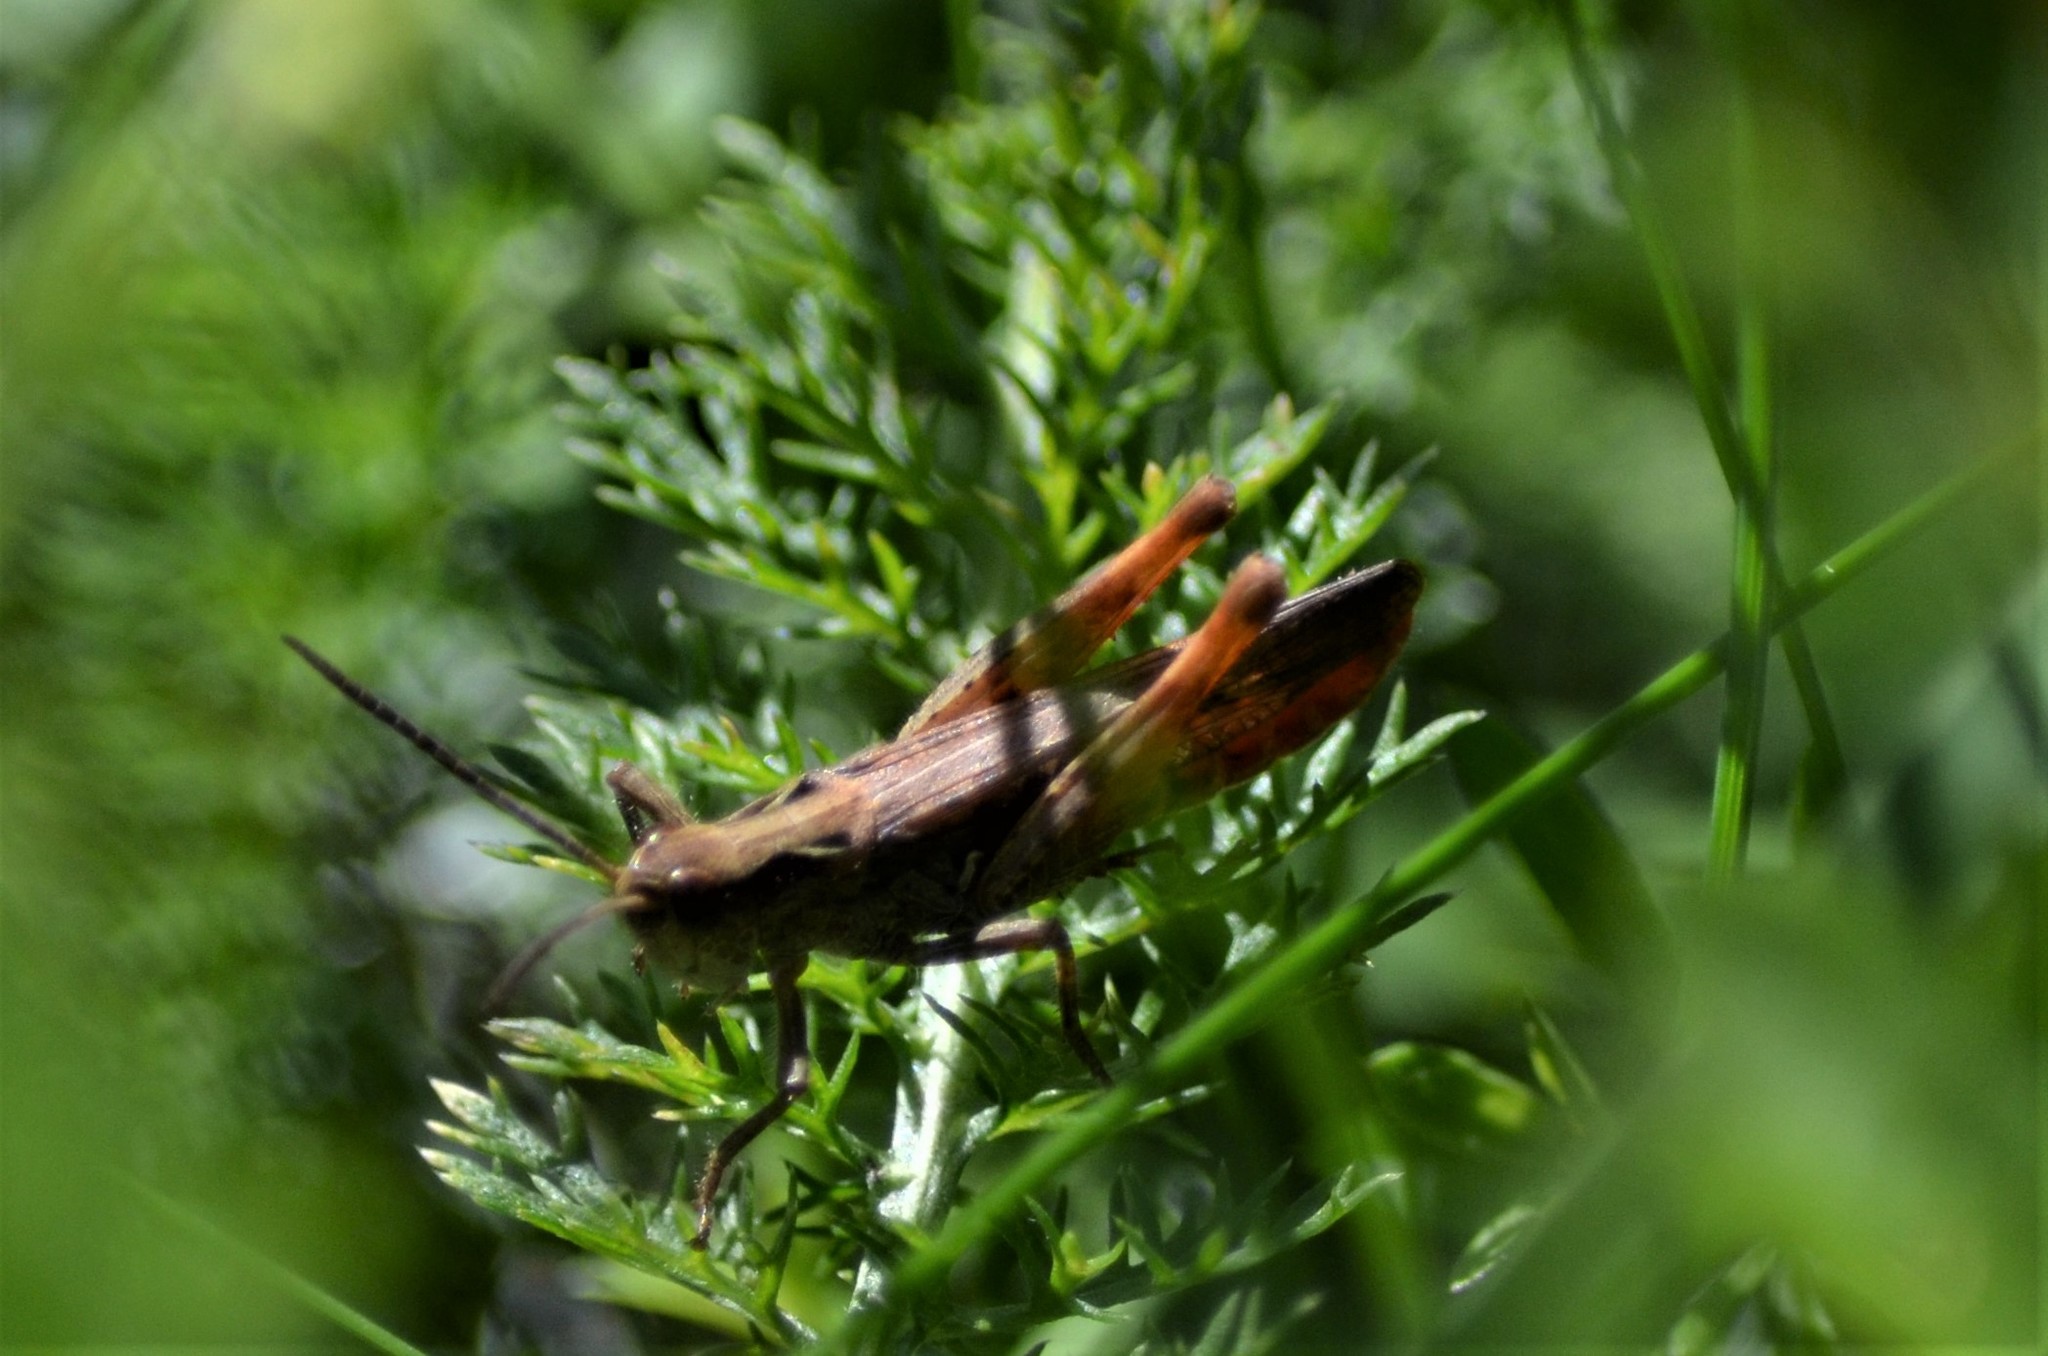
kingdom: Animalia
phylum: Arthropoda
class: Insecta
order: Orthoptera
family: Acrididae
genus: Chorthippus
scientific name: Chorthippus biguttulus
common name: Bow-winged grasshopper
